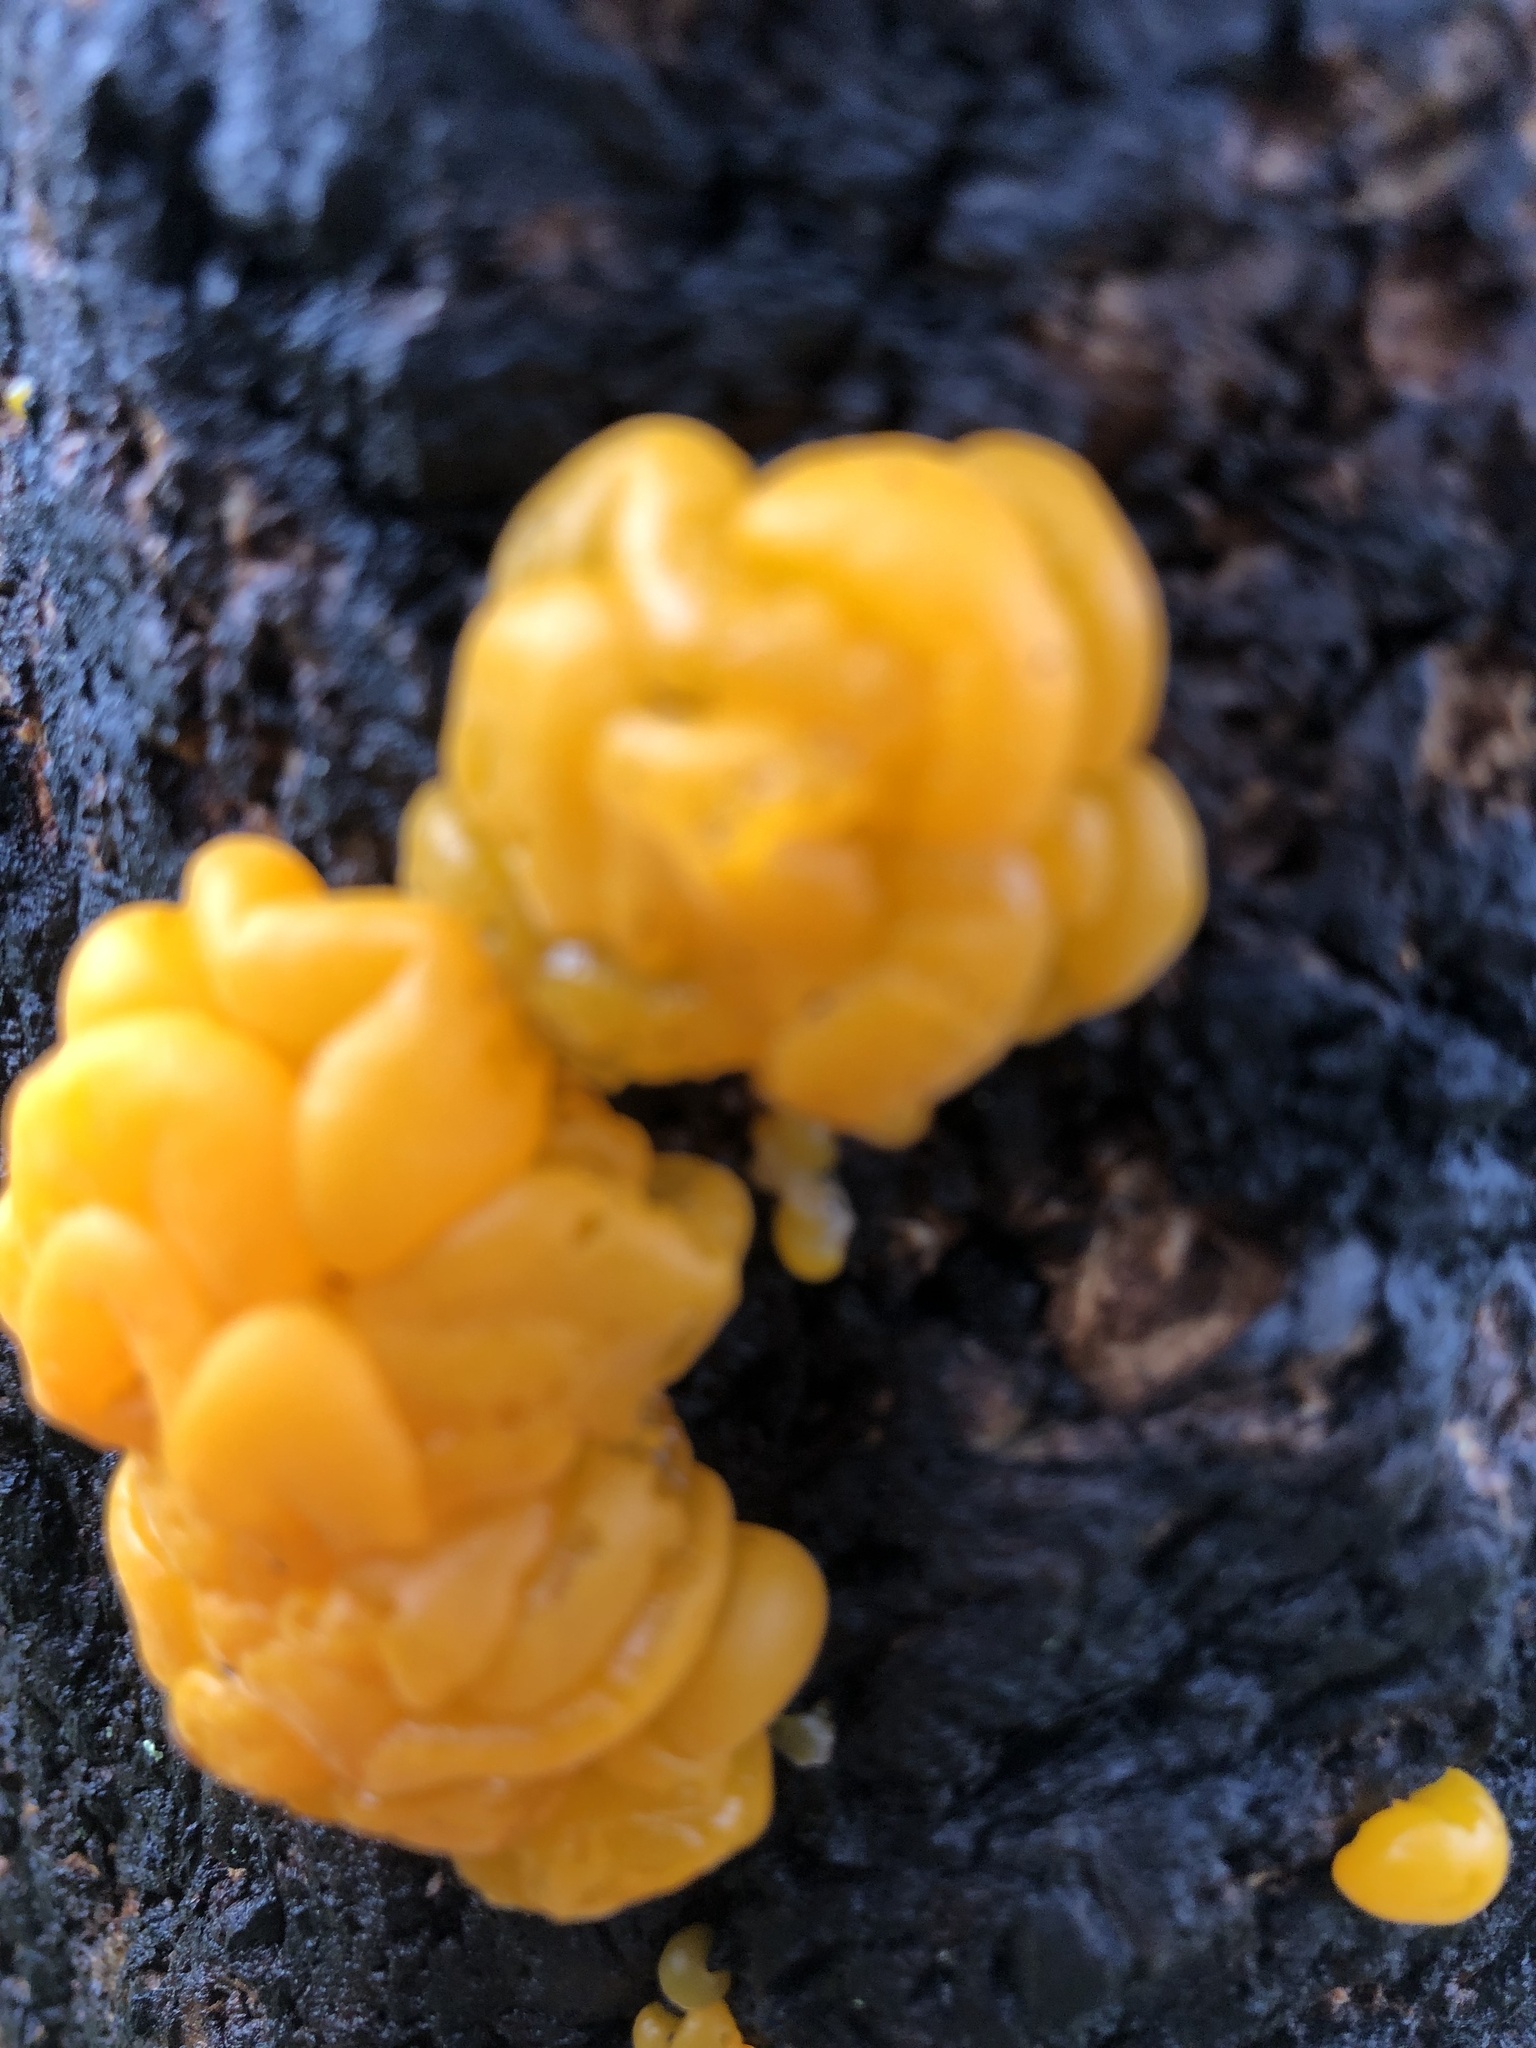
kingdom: Fungi
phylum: Basidiomycota
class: Dacrymycetes
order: Dacrymycetales
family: Dacrymycetaceae
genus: Dacrymyces
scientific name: Dacrymyces chrysospermus
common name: Orange jelly spot
